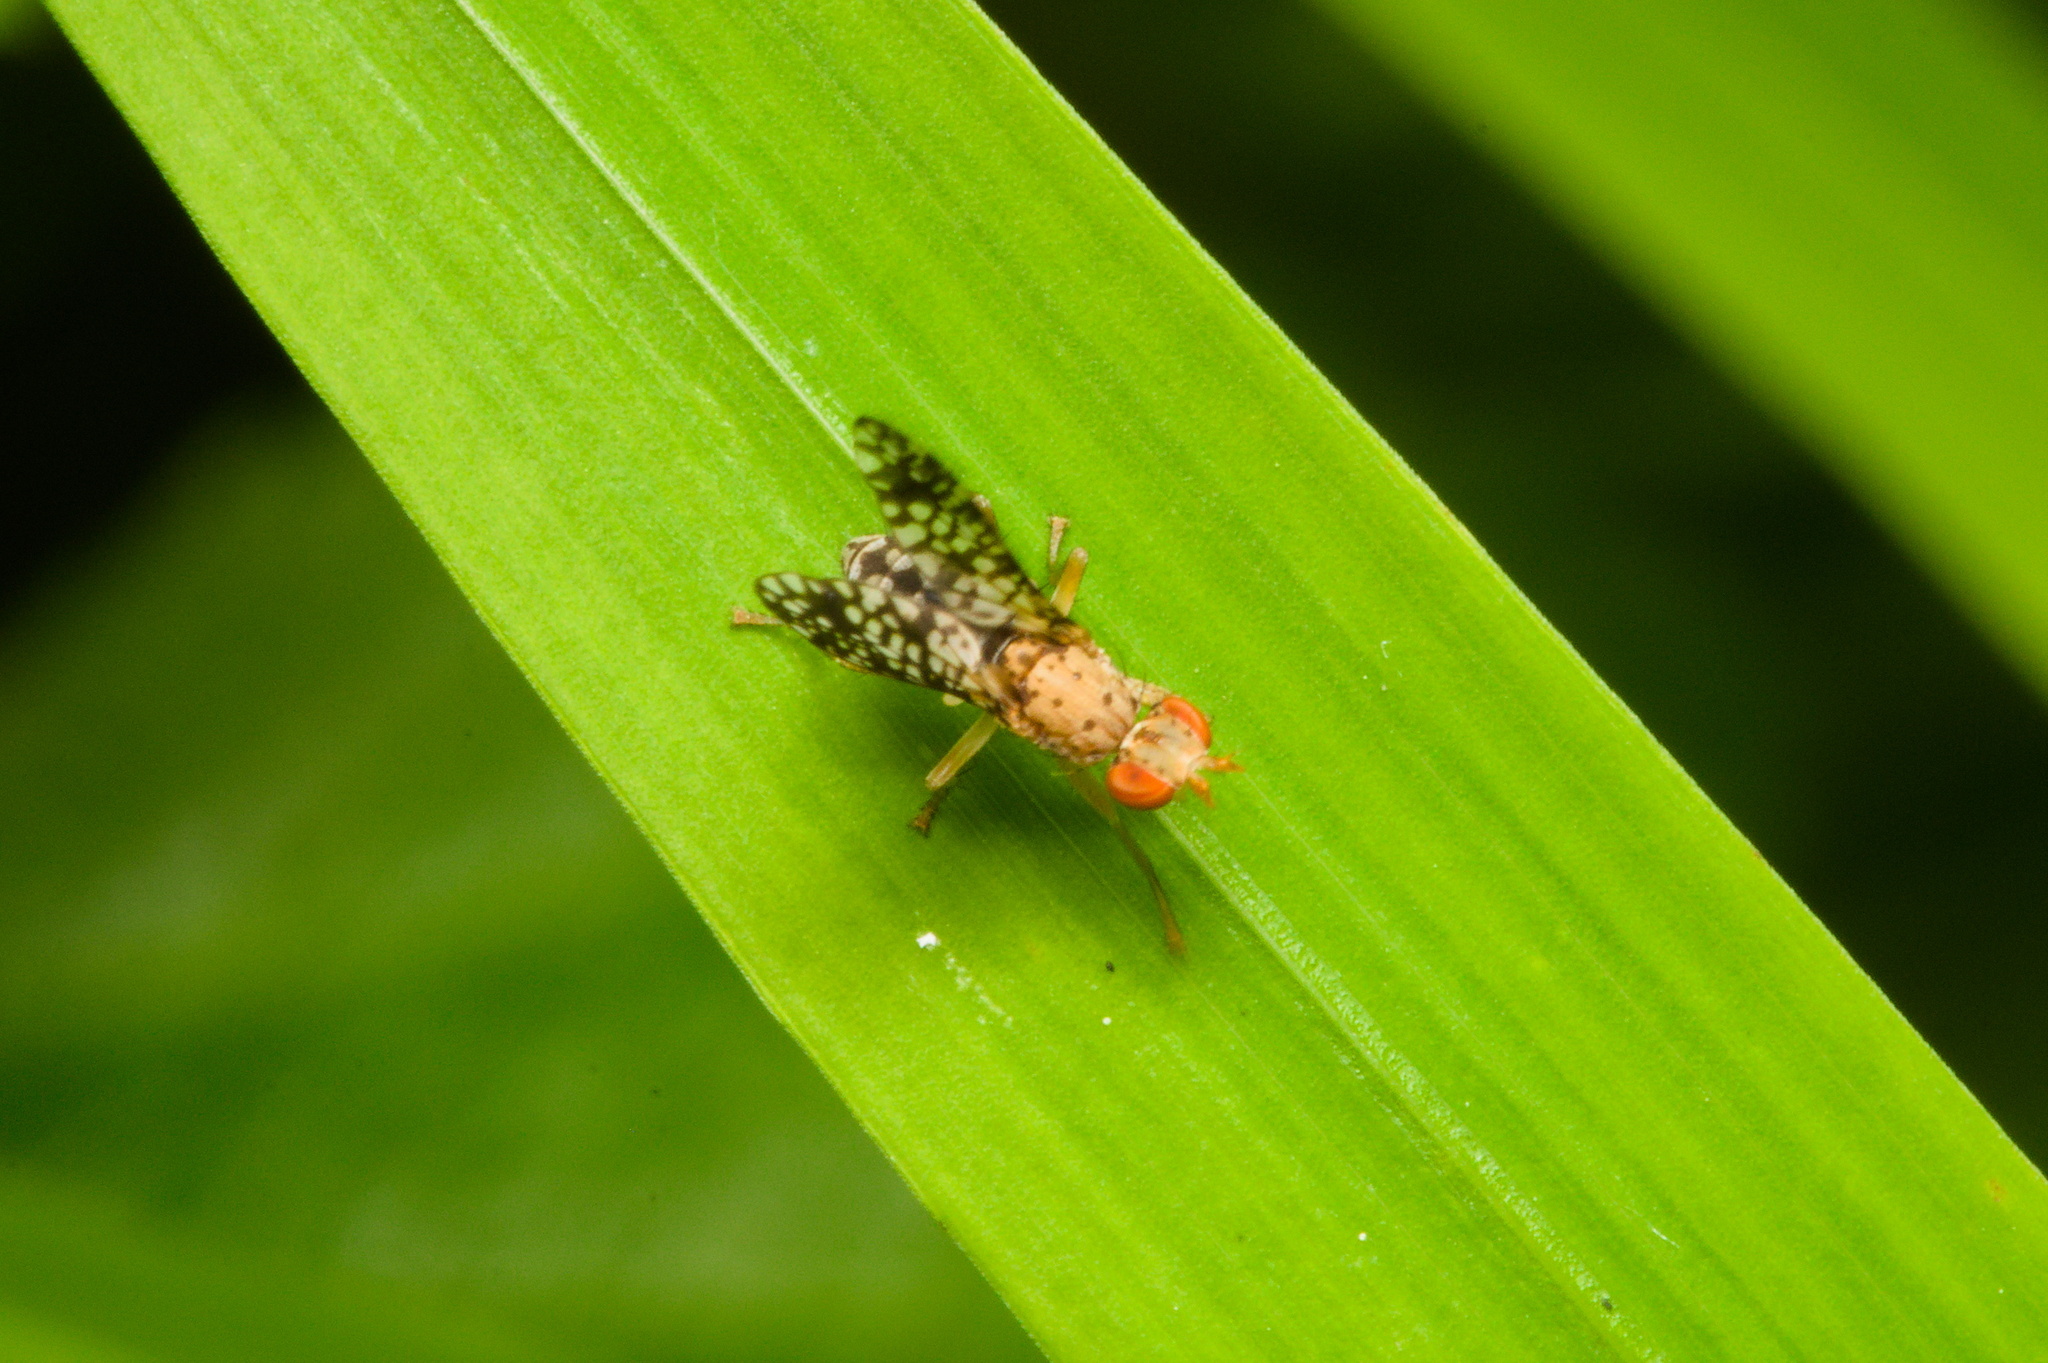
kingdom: Animalia
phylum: Arthropoda
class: Insecta
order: Diptera
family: Sciomyzidae
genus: Trypetoptera
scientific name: Trypetoptera punctulata
